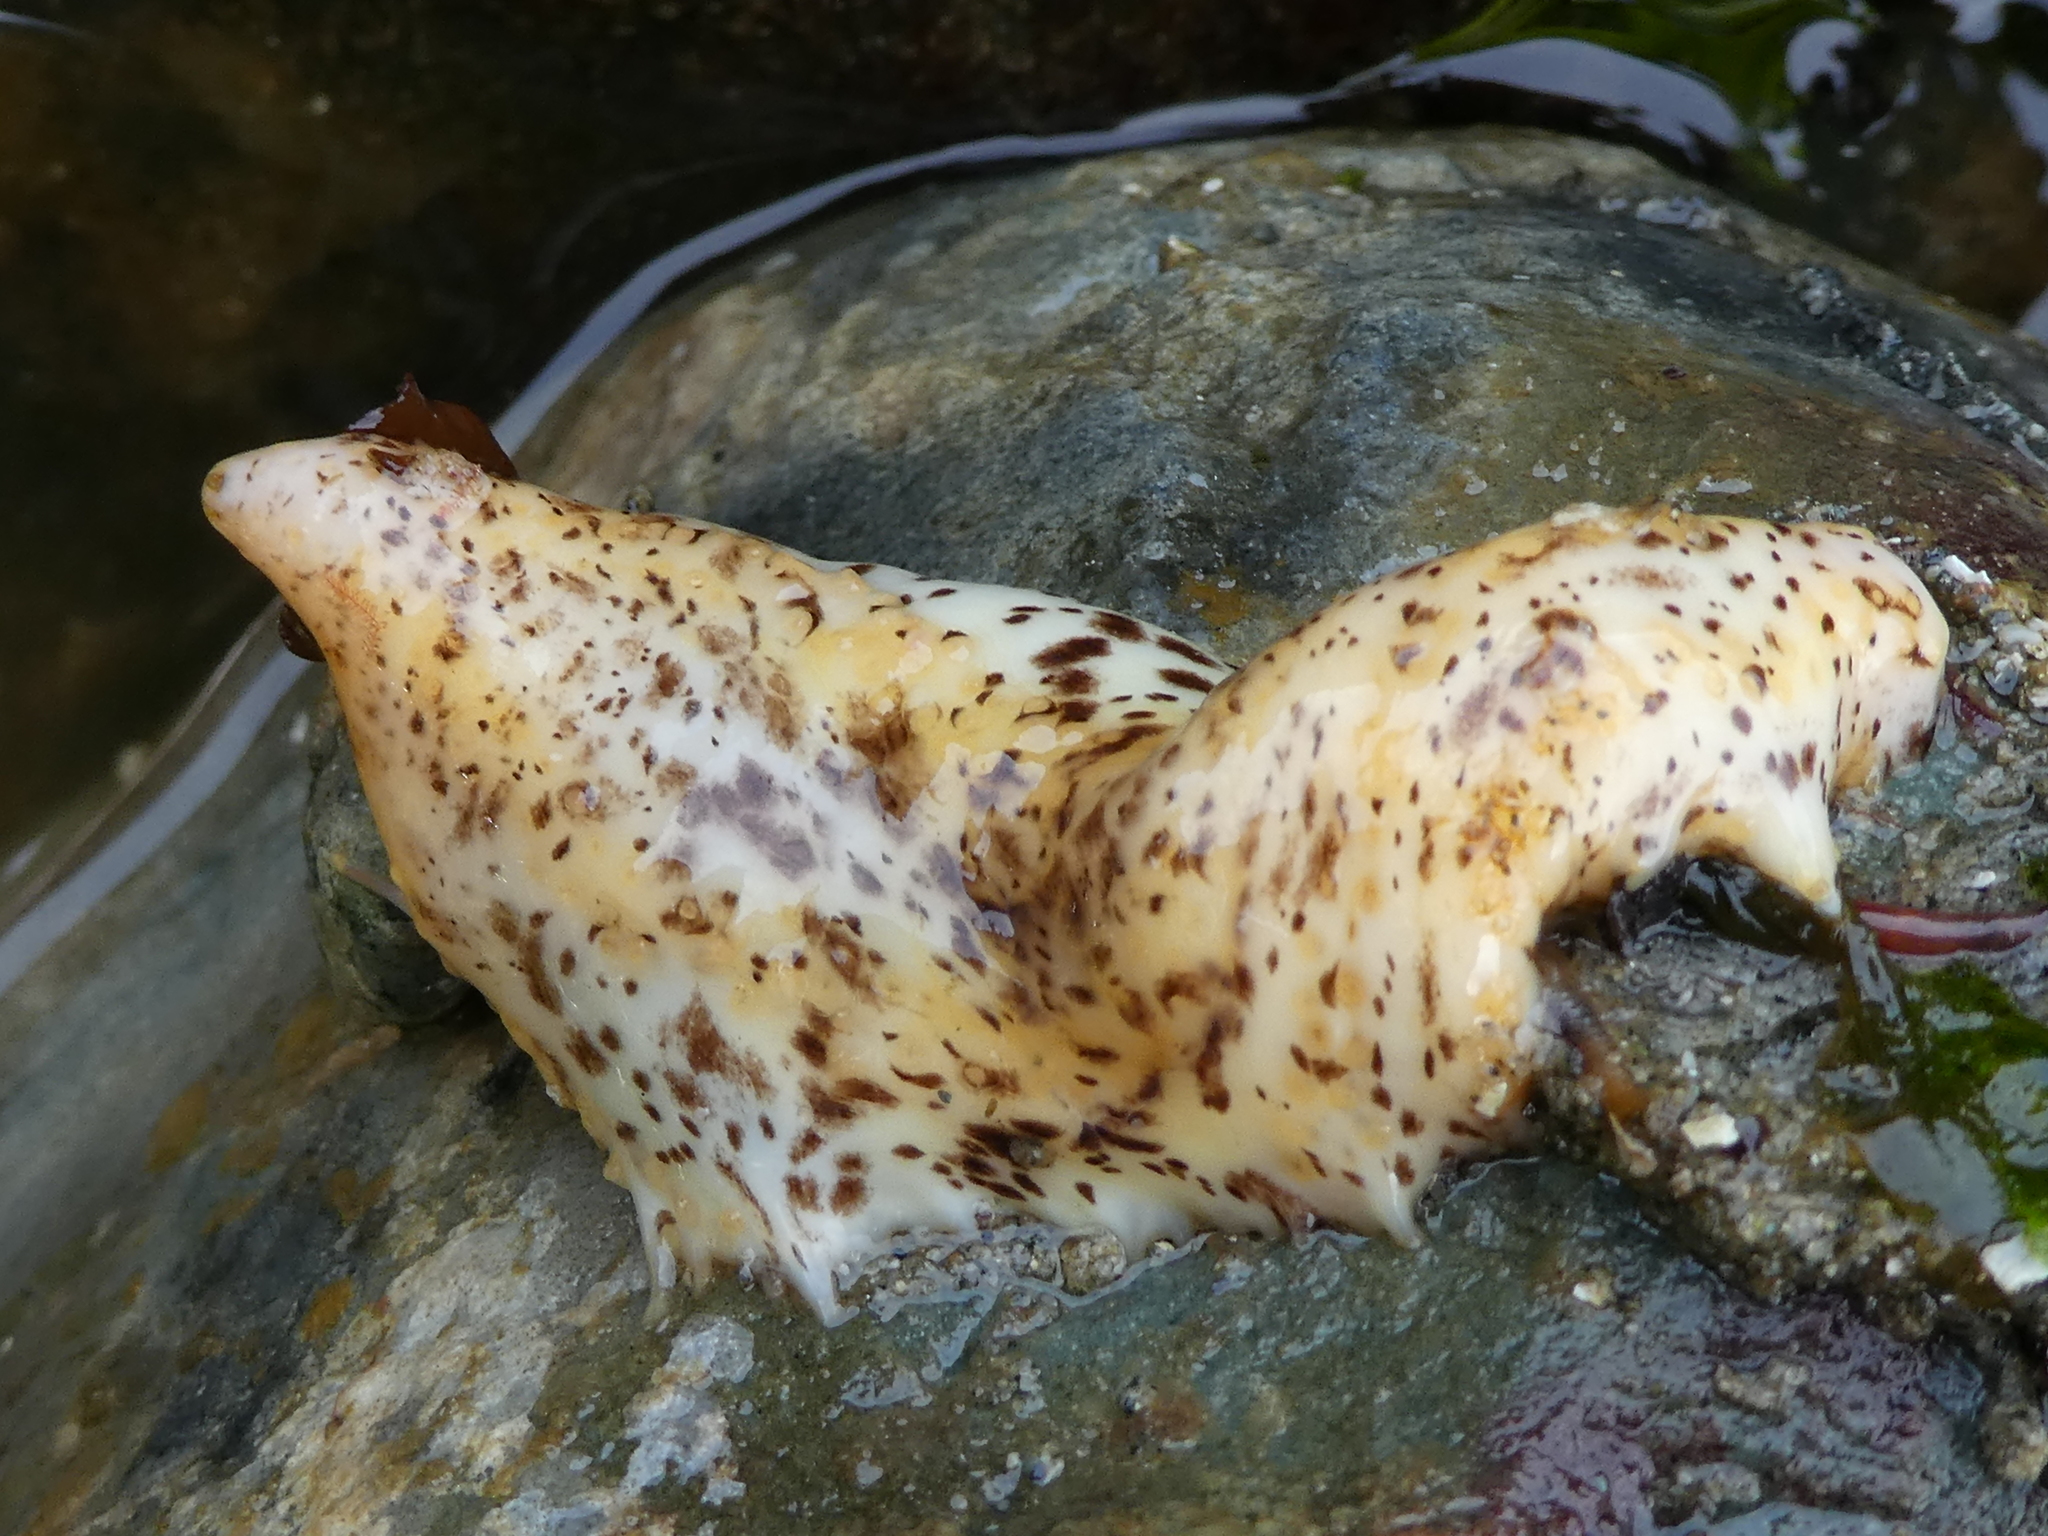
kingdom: Animalia
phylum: Echinodermata
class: Holothuroidea
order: Dendrochirotida
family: Cucumariidae
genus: Cucumaria
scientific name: Cucumaria piperata
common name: Peppered sea cucumber
